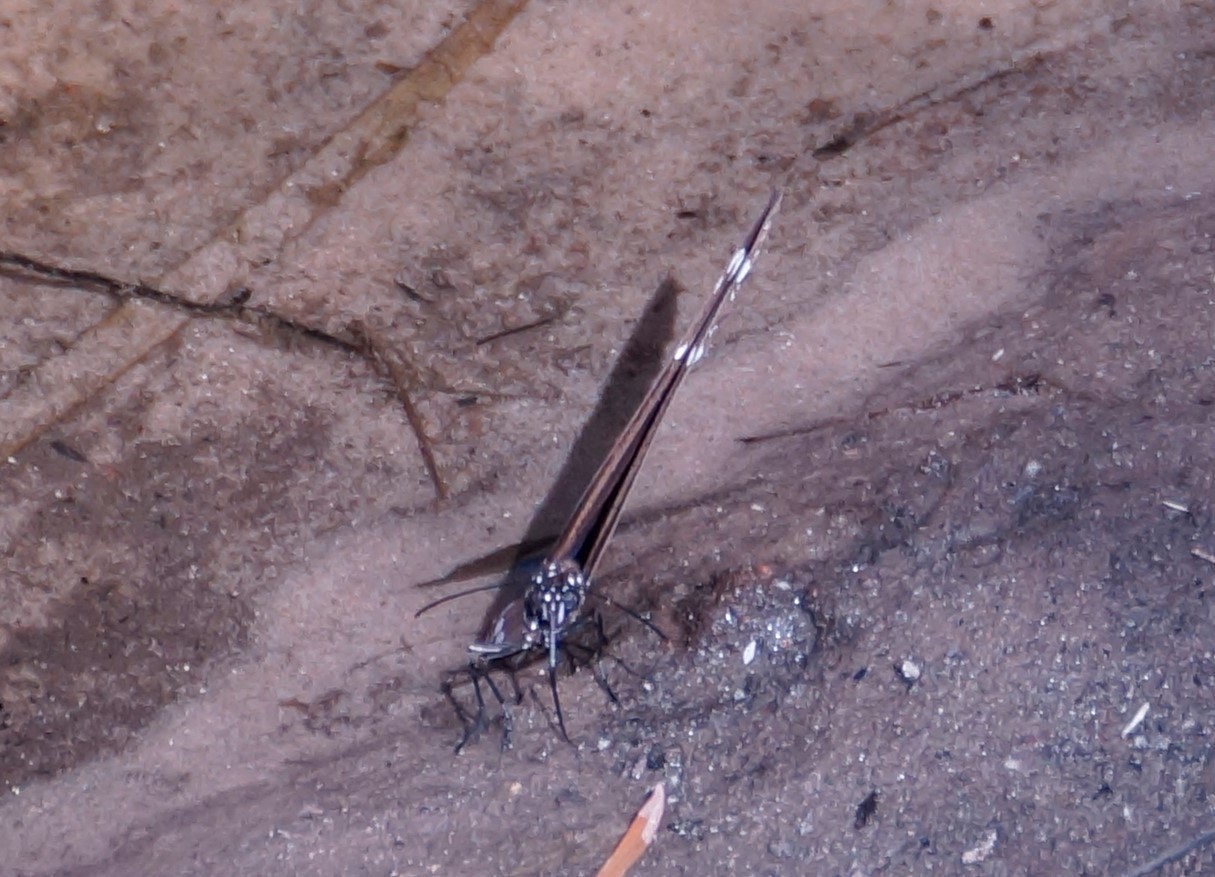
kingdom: Animalia
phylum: Arthropoda
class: Insecta
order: Lepidoptera
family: Nymphalidae
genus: Euploea
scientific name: Euploea core
